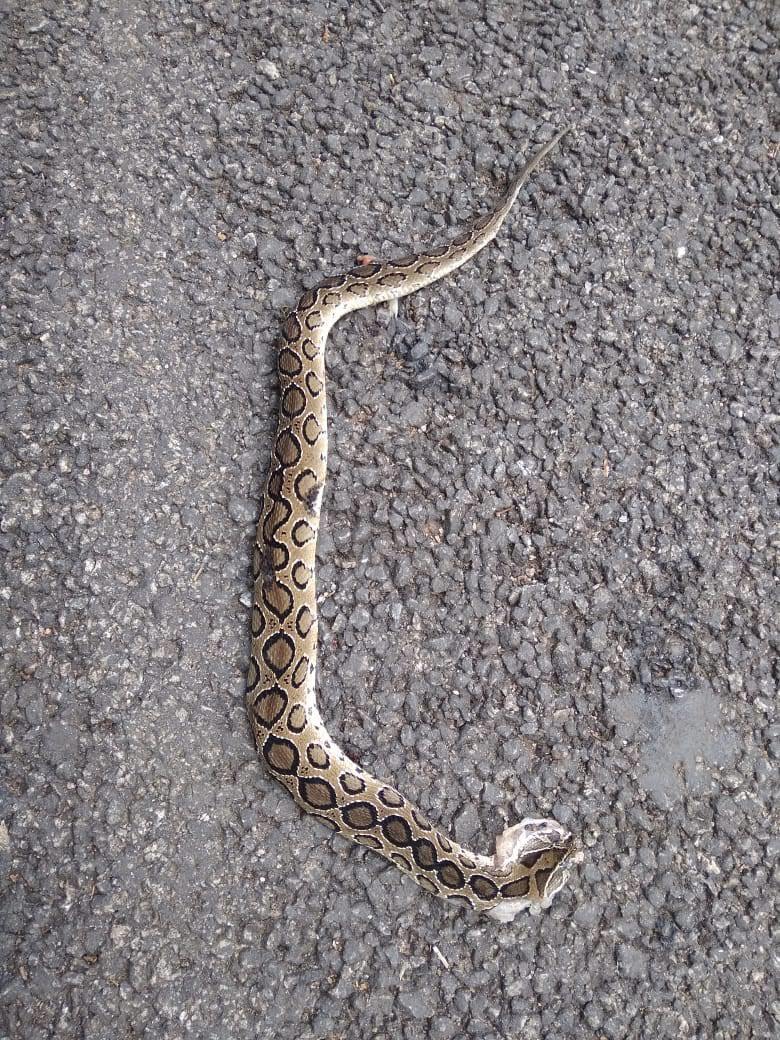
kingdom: Animalia
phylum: Chordata
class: Squamata
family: Viperidae
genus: Daboia
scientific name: Daboia russelii
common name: Western russel’s viper
